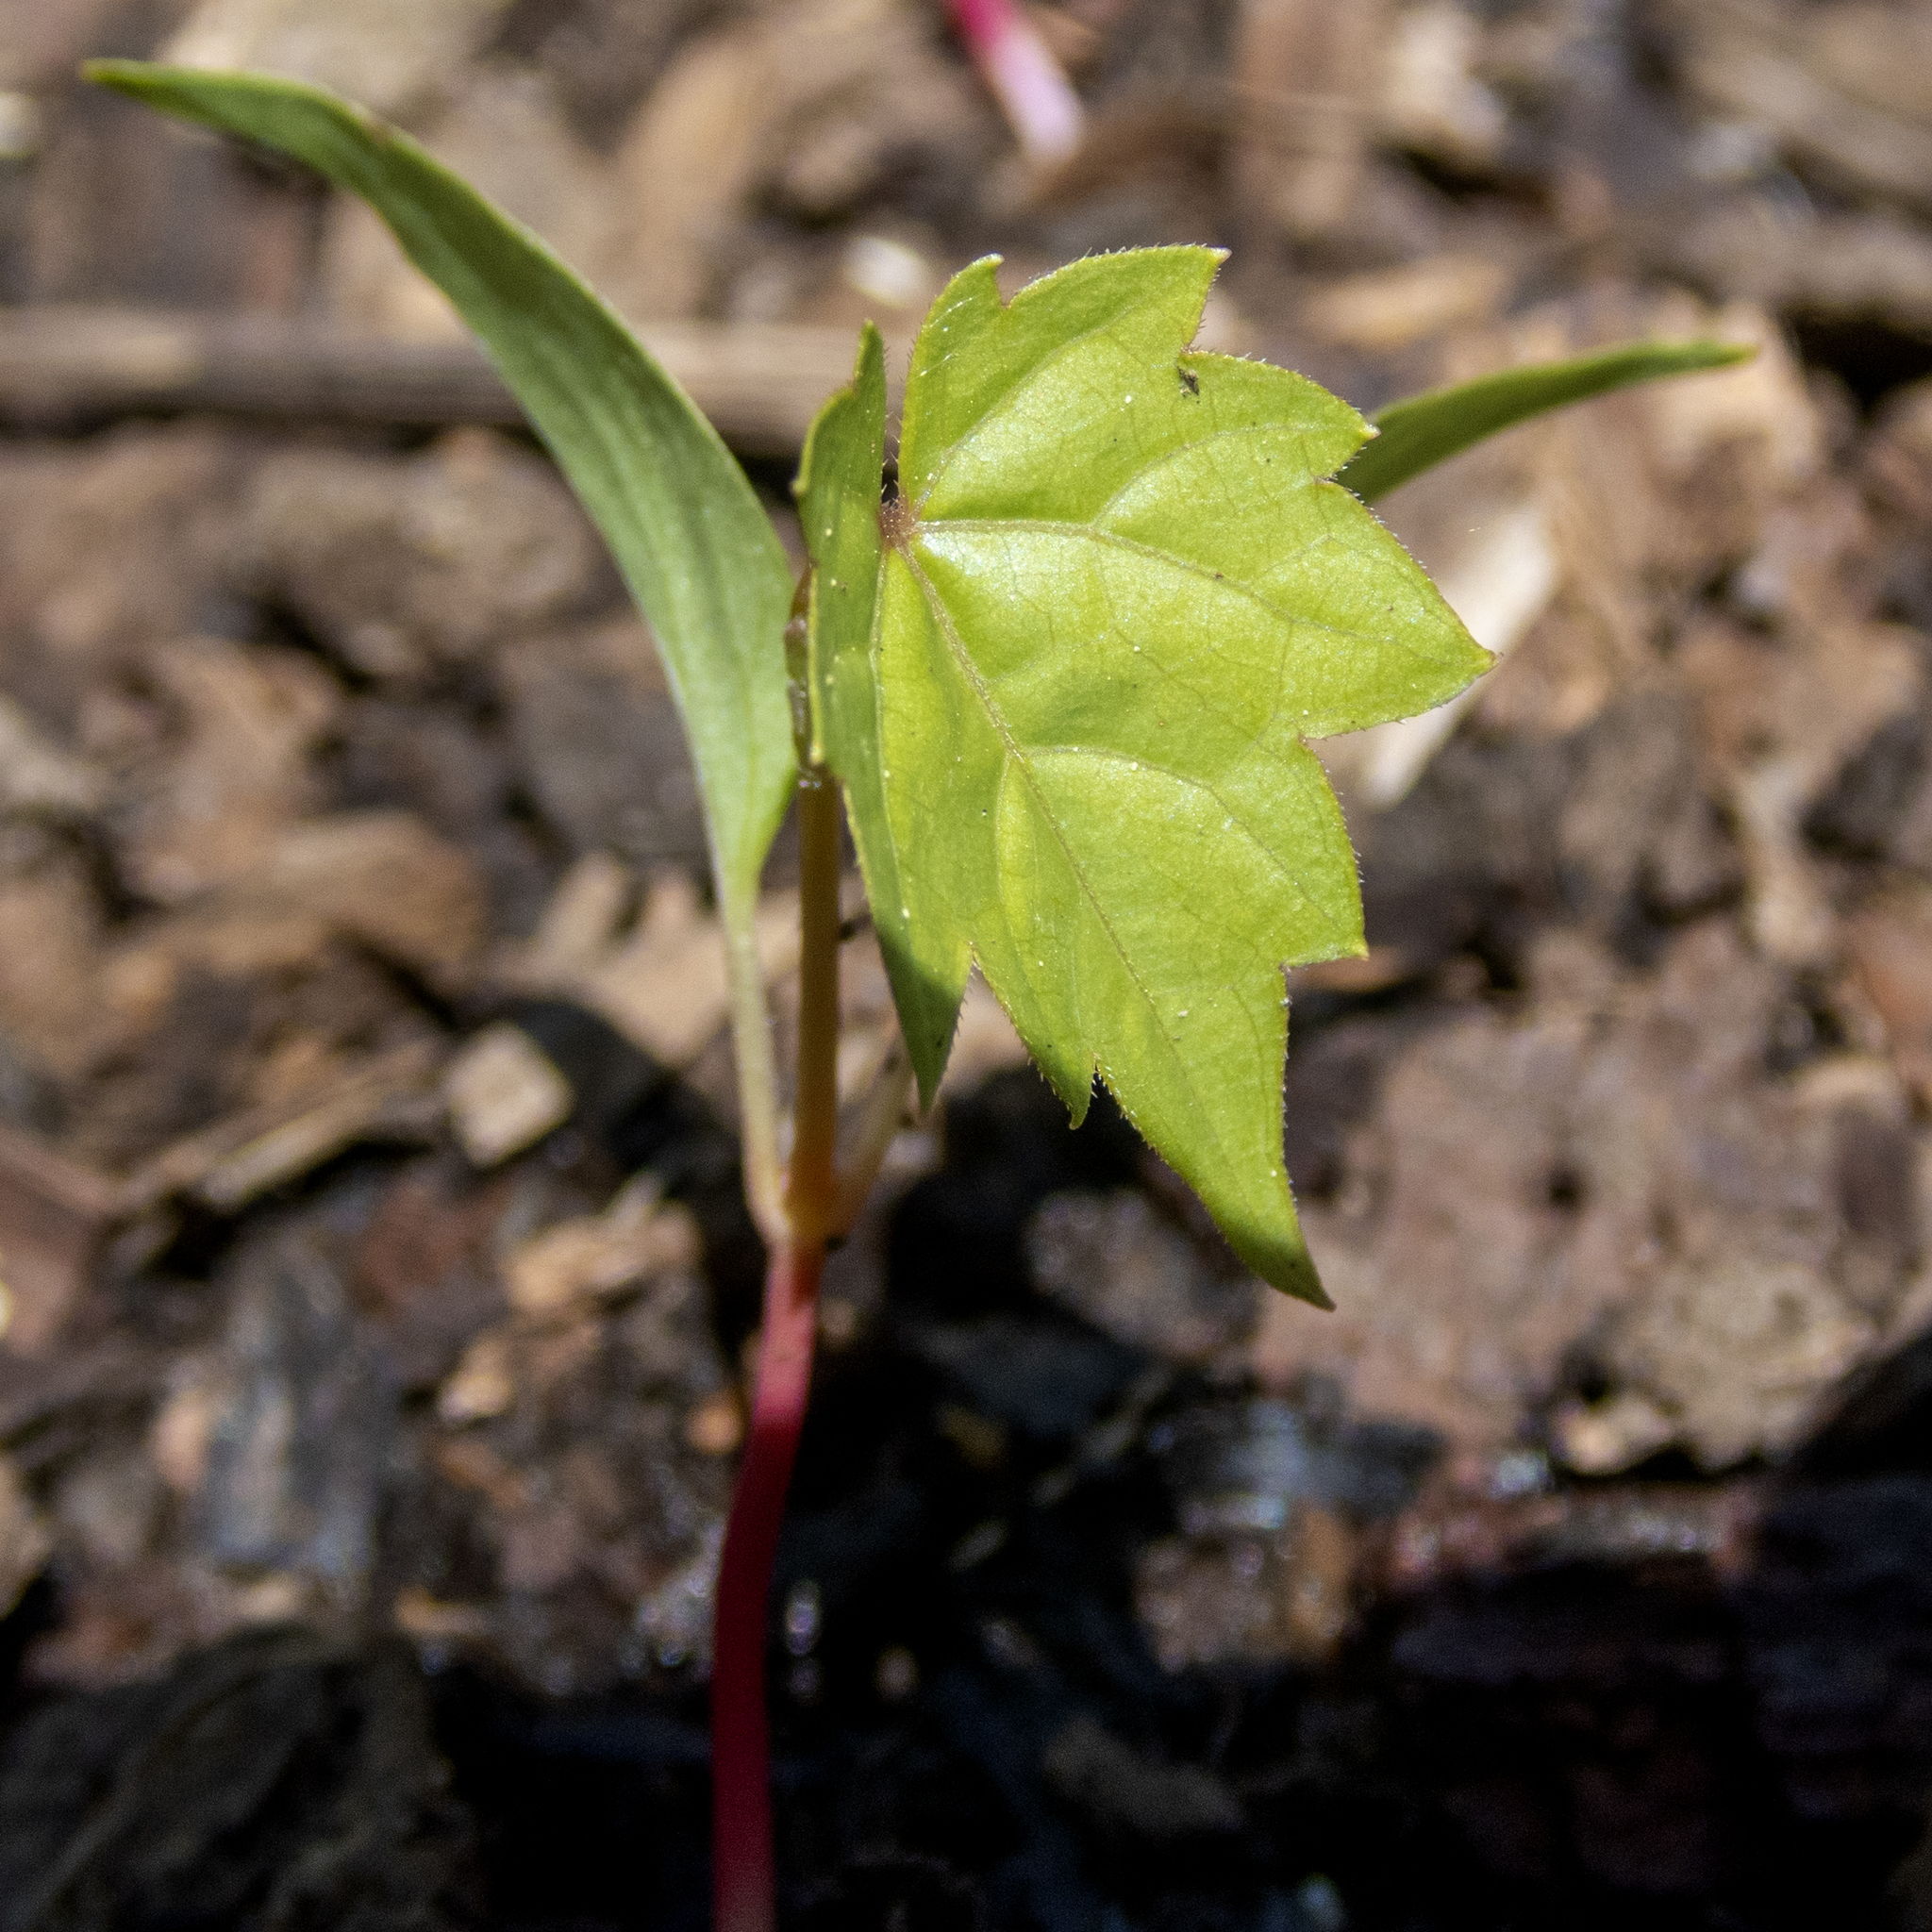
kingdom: Plantae
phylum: Tracheophyta
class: Magnoliopsida
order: Vitales
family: Vitaceae
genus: Vitis
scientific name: Vitis
